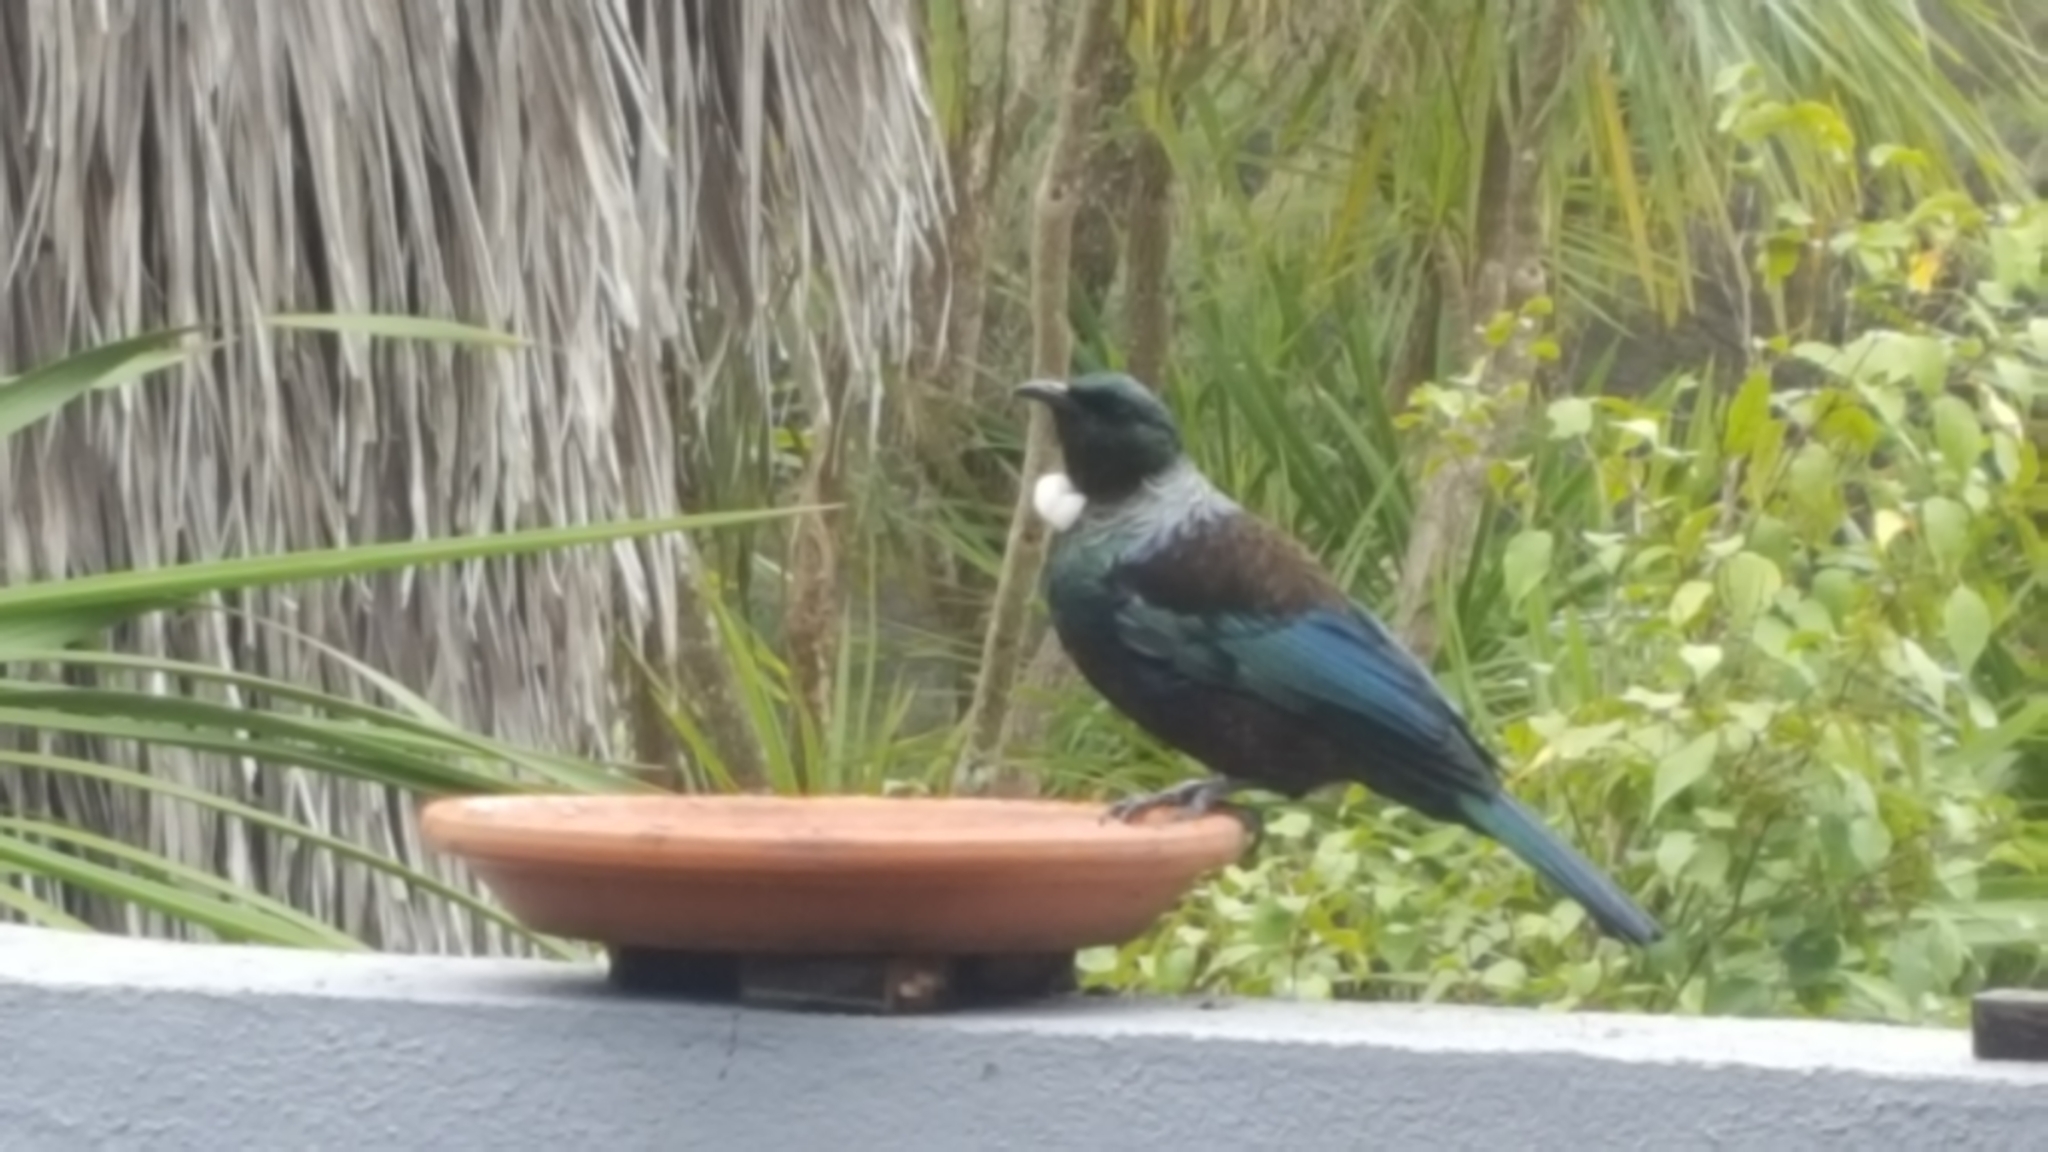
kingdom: Animalia
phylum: Chordata
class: Aves
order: Passeriformes
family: Meliphagidae
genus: Prosthemadera
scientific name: Prosthemadera novaeseelandiae
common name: Tui
